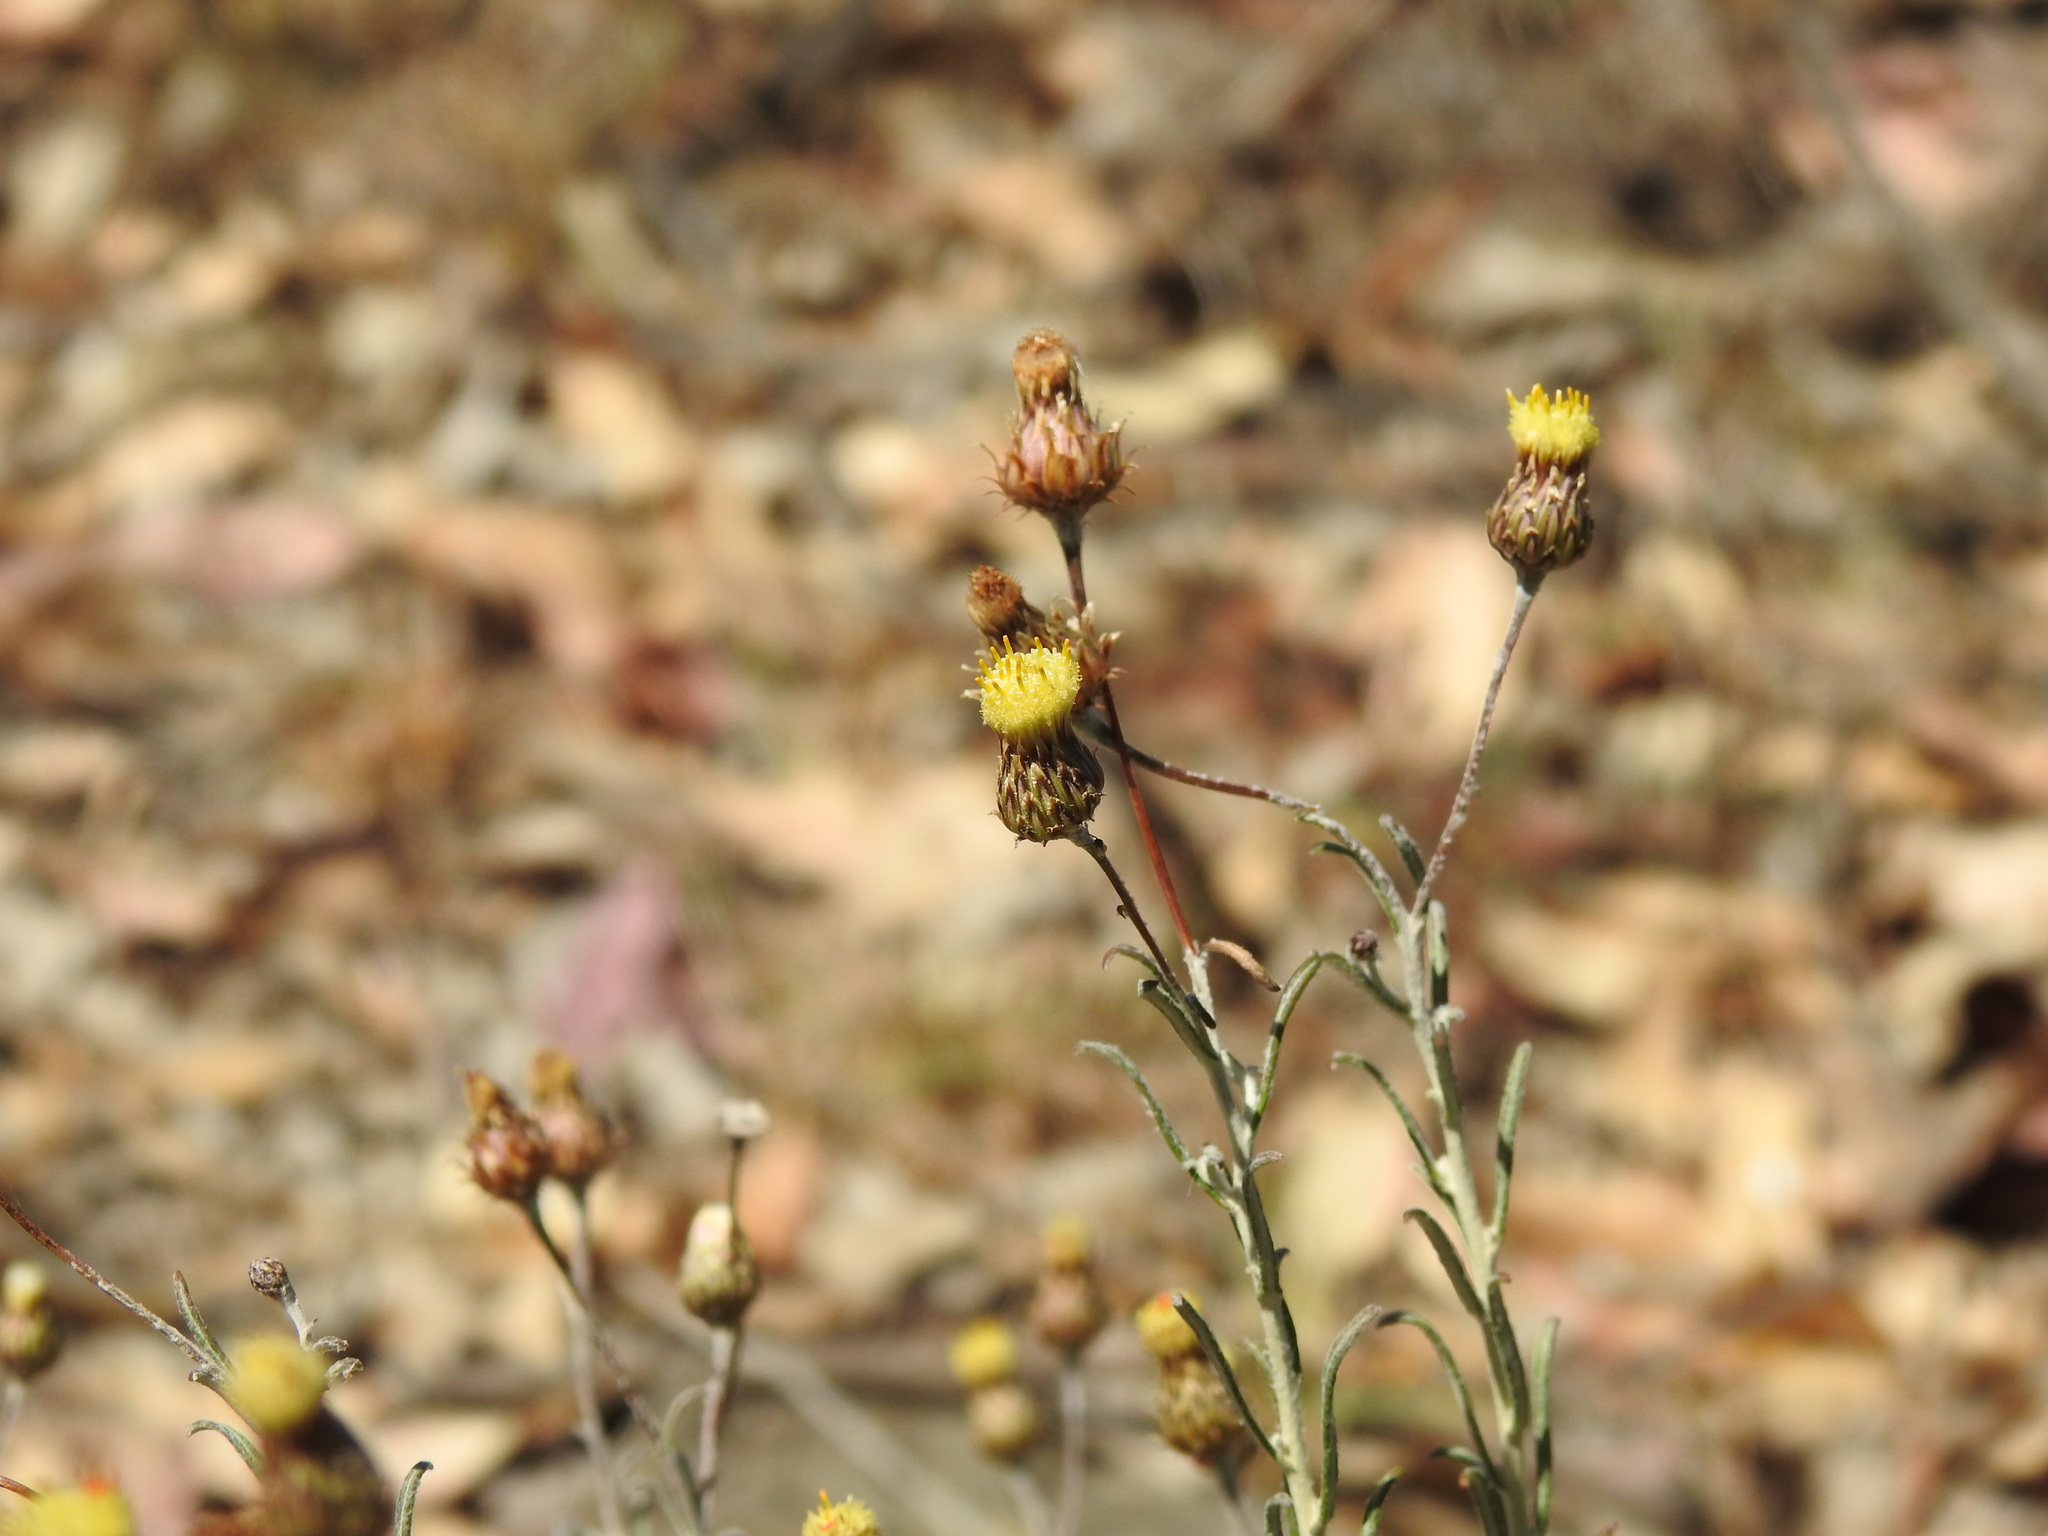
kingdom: Plantae
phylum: Tracheophyta
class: Magnoliopsida
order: Asterales
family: Asteraceae
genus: Phagnalon
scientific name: Phagnalon saxatile
